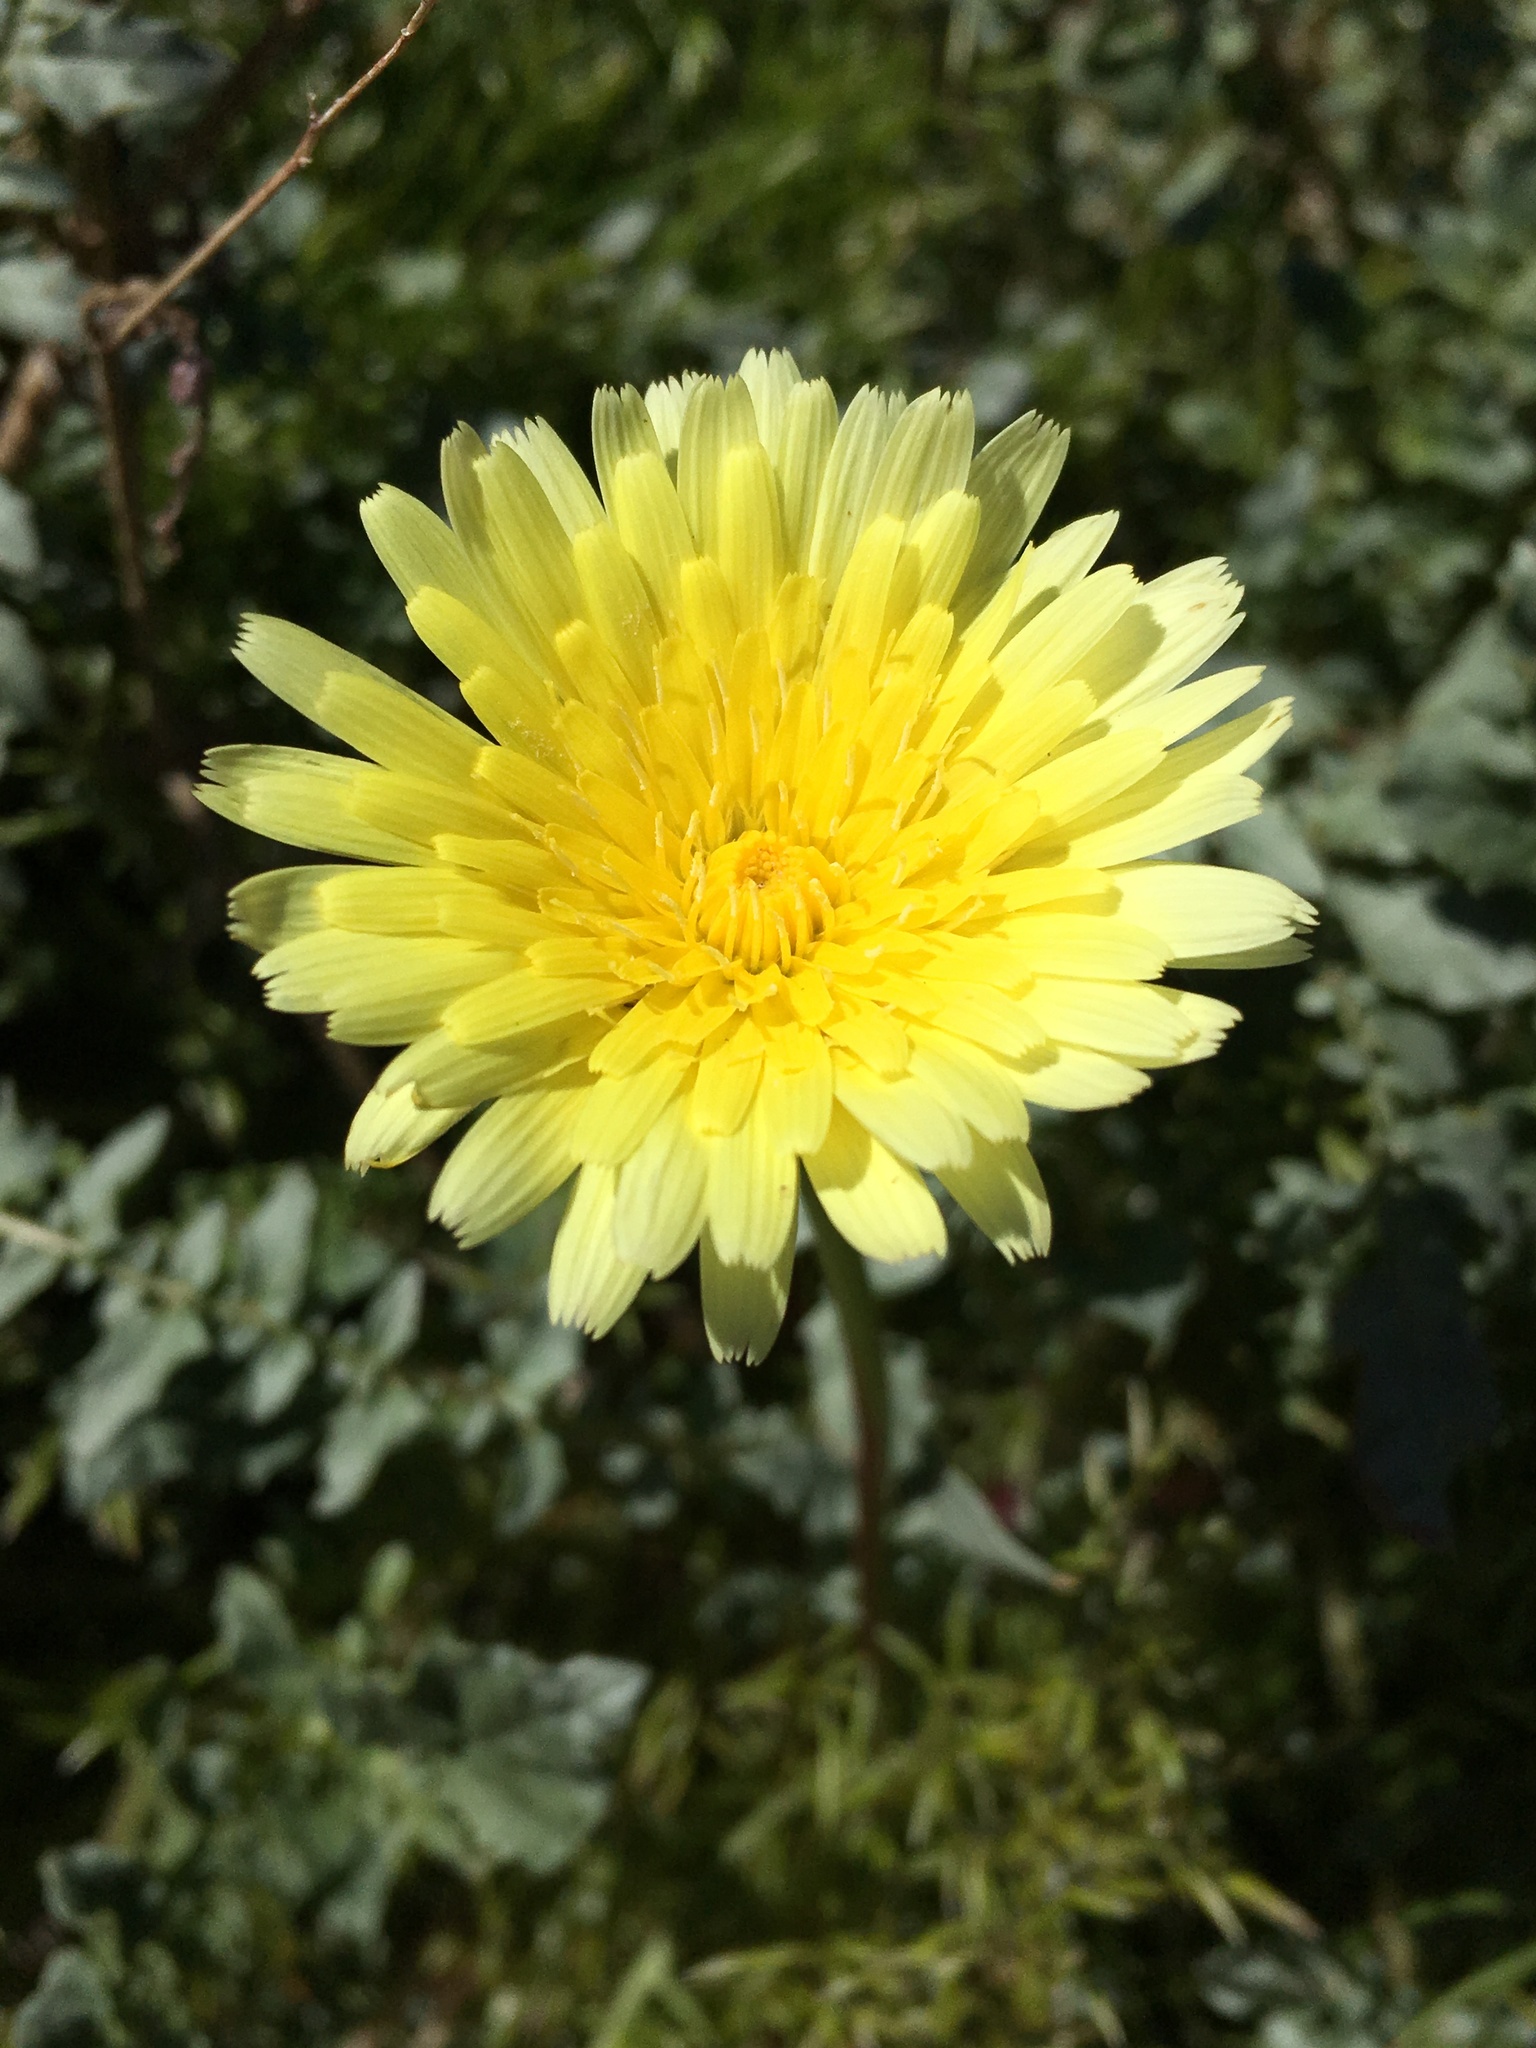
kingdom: Plantae
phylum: Tracheophyta
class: Magnoliopsida
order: Asterales
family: Asteraceae
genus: Malacothrix
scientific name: Malacothrix glabrata
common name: Smooth desert-dandelion
